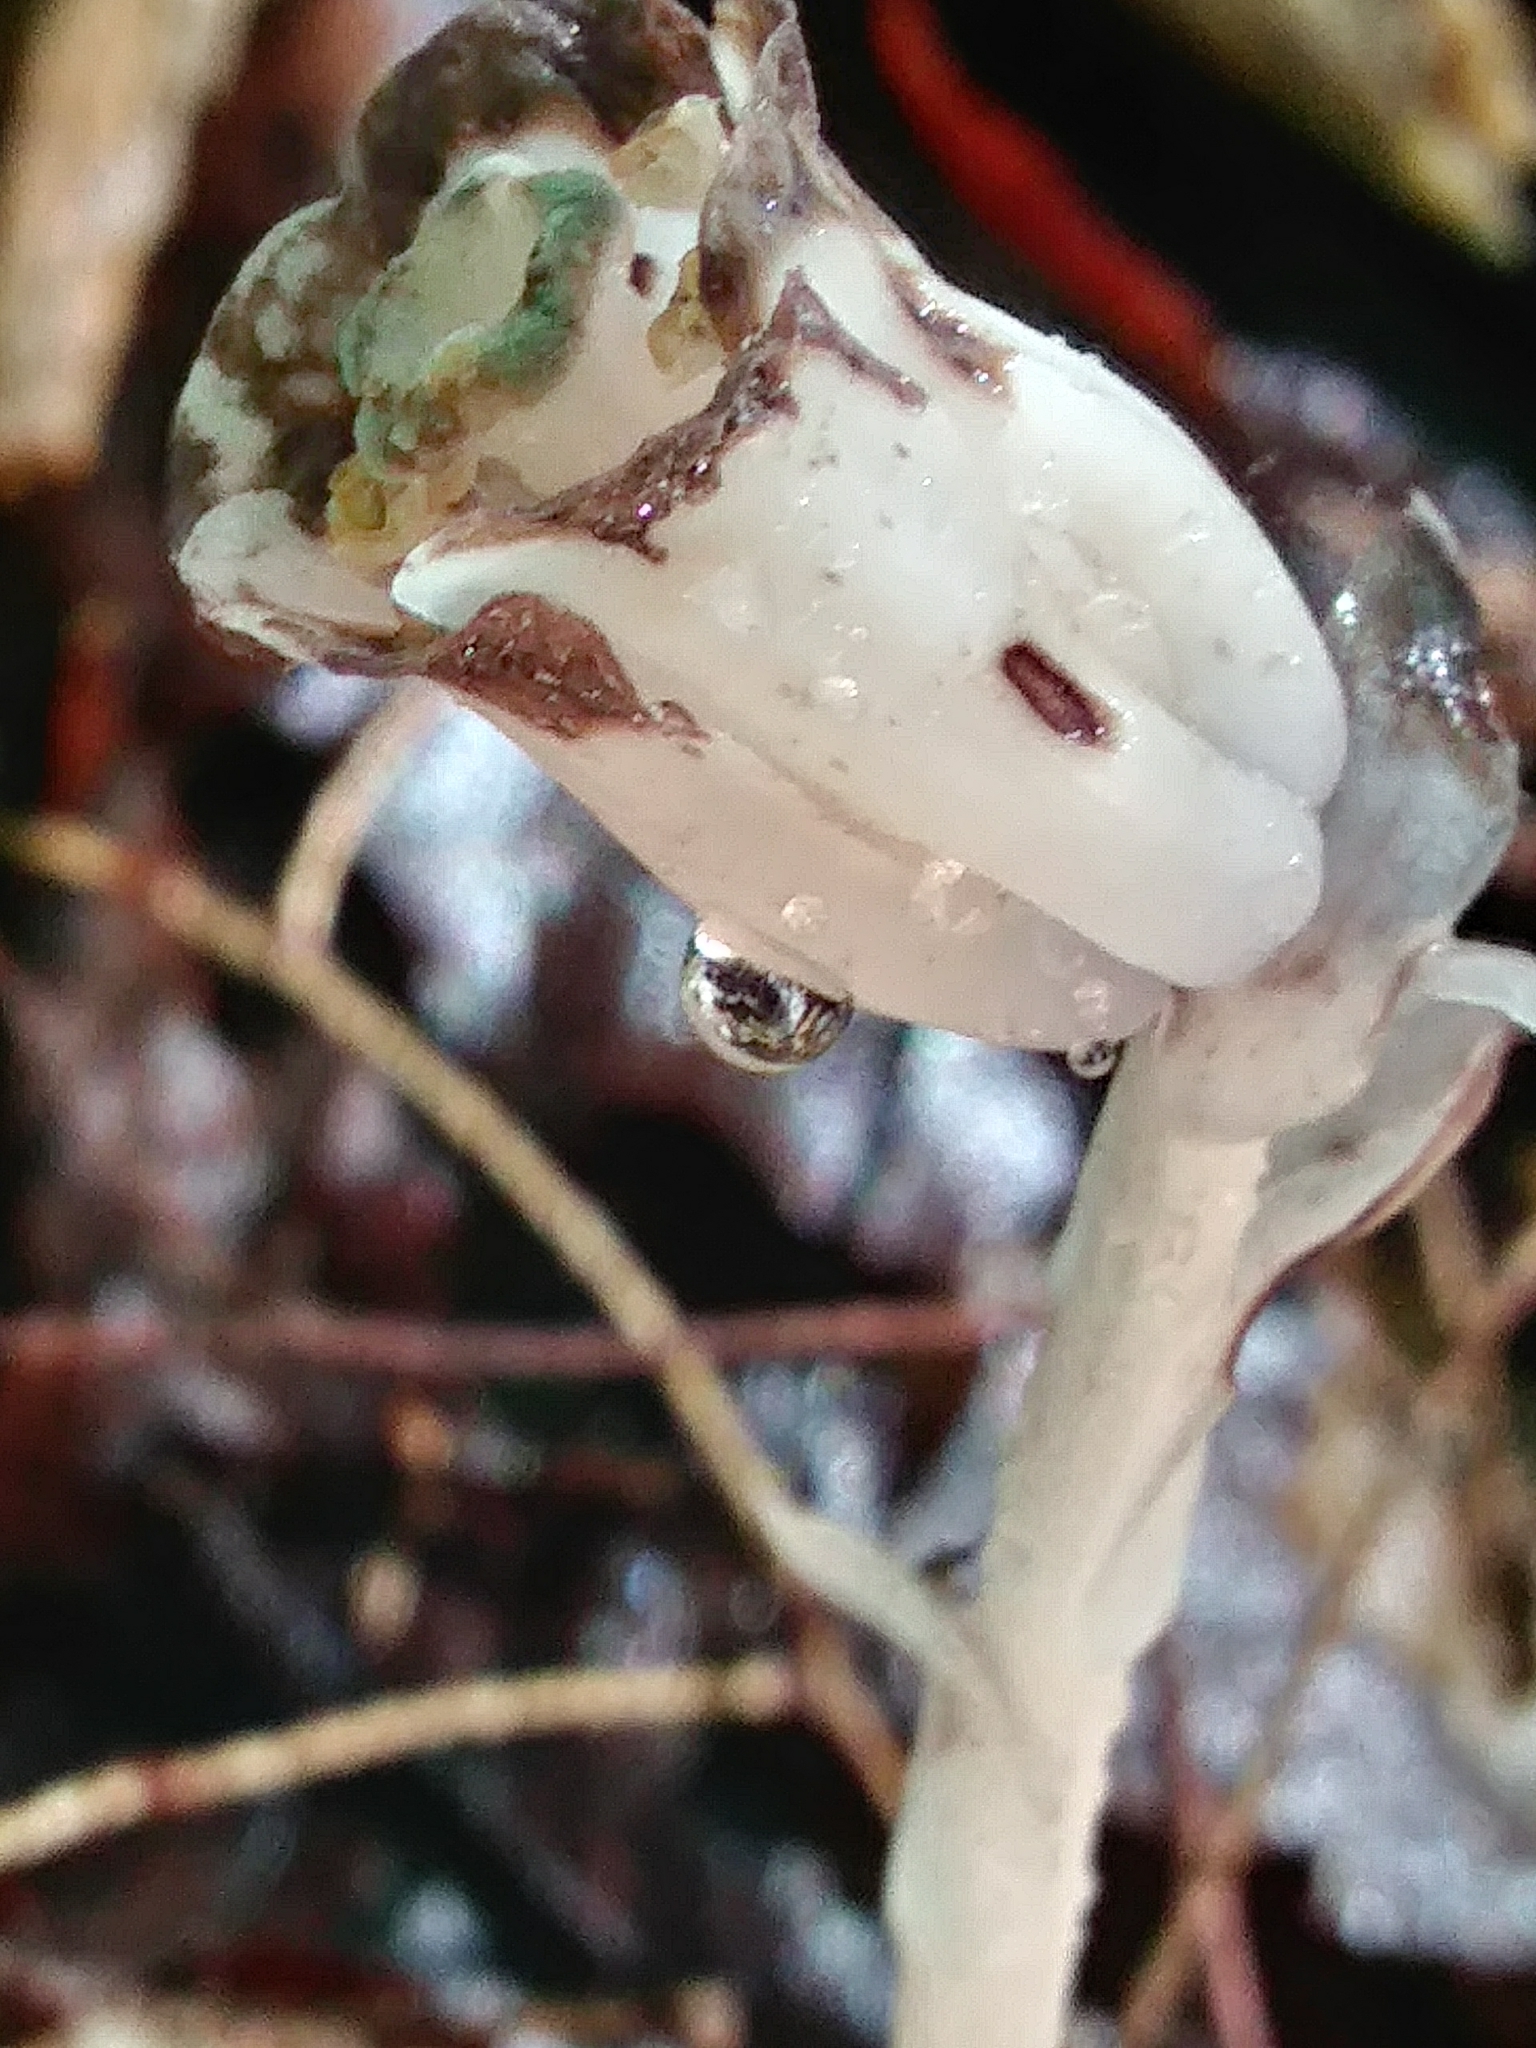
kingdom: Plantae
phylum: Tracheophyta
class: Magnoliopsida
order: Ericales
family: Ericaceae
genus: Monotropa
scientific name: Monotropa uniflora
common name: Convulsion root
